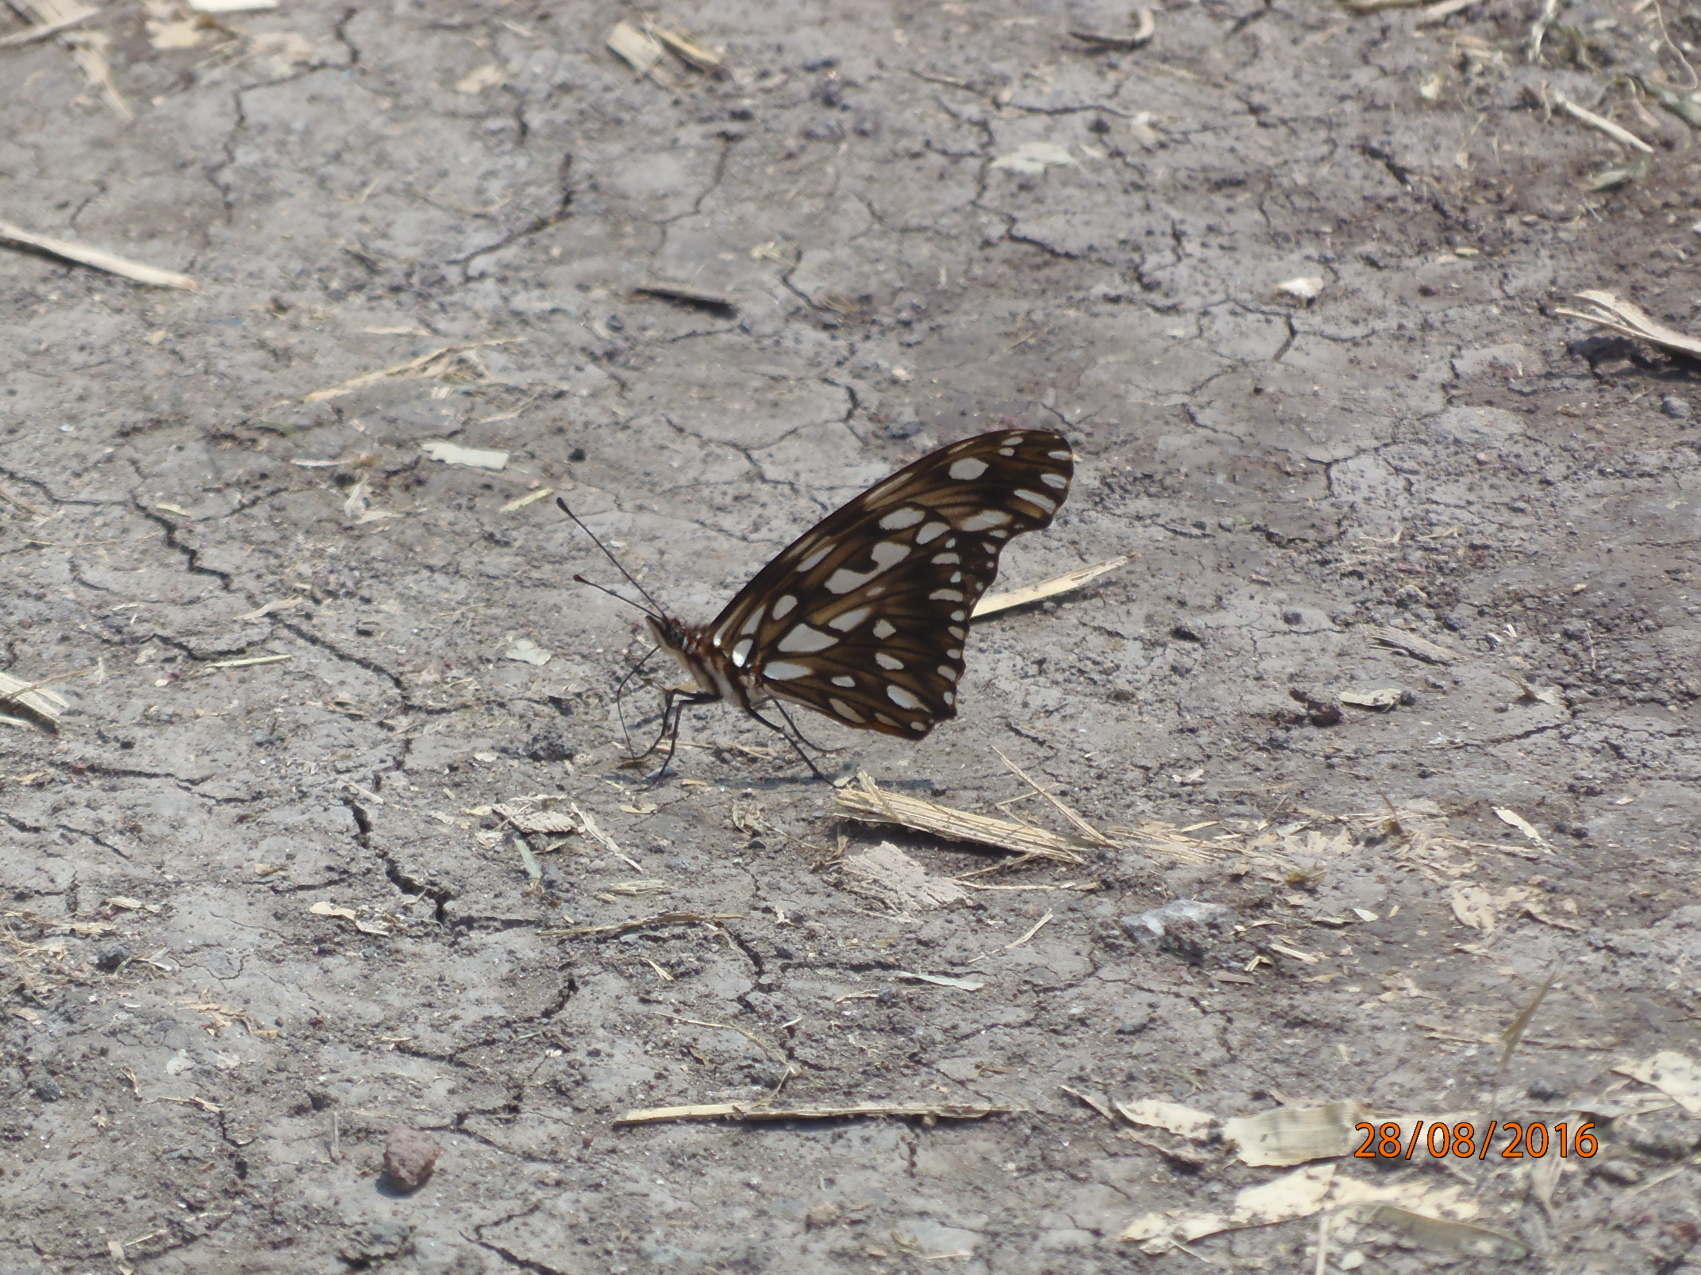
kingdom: Animalia
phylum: Arthropoda
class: Insecta
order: Lepidoptera
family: Nymphalidae
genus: Dione
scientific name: Dione juno
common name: Juno silverspot
